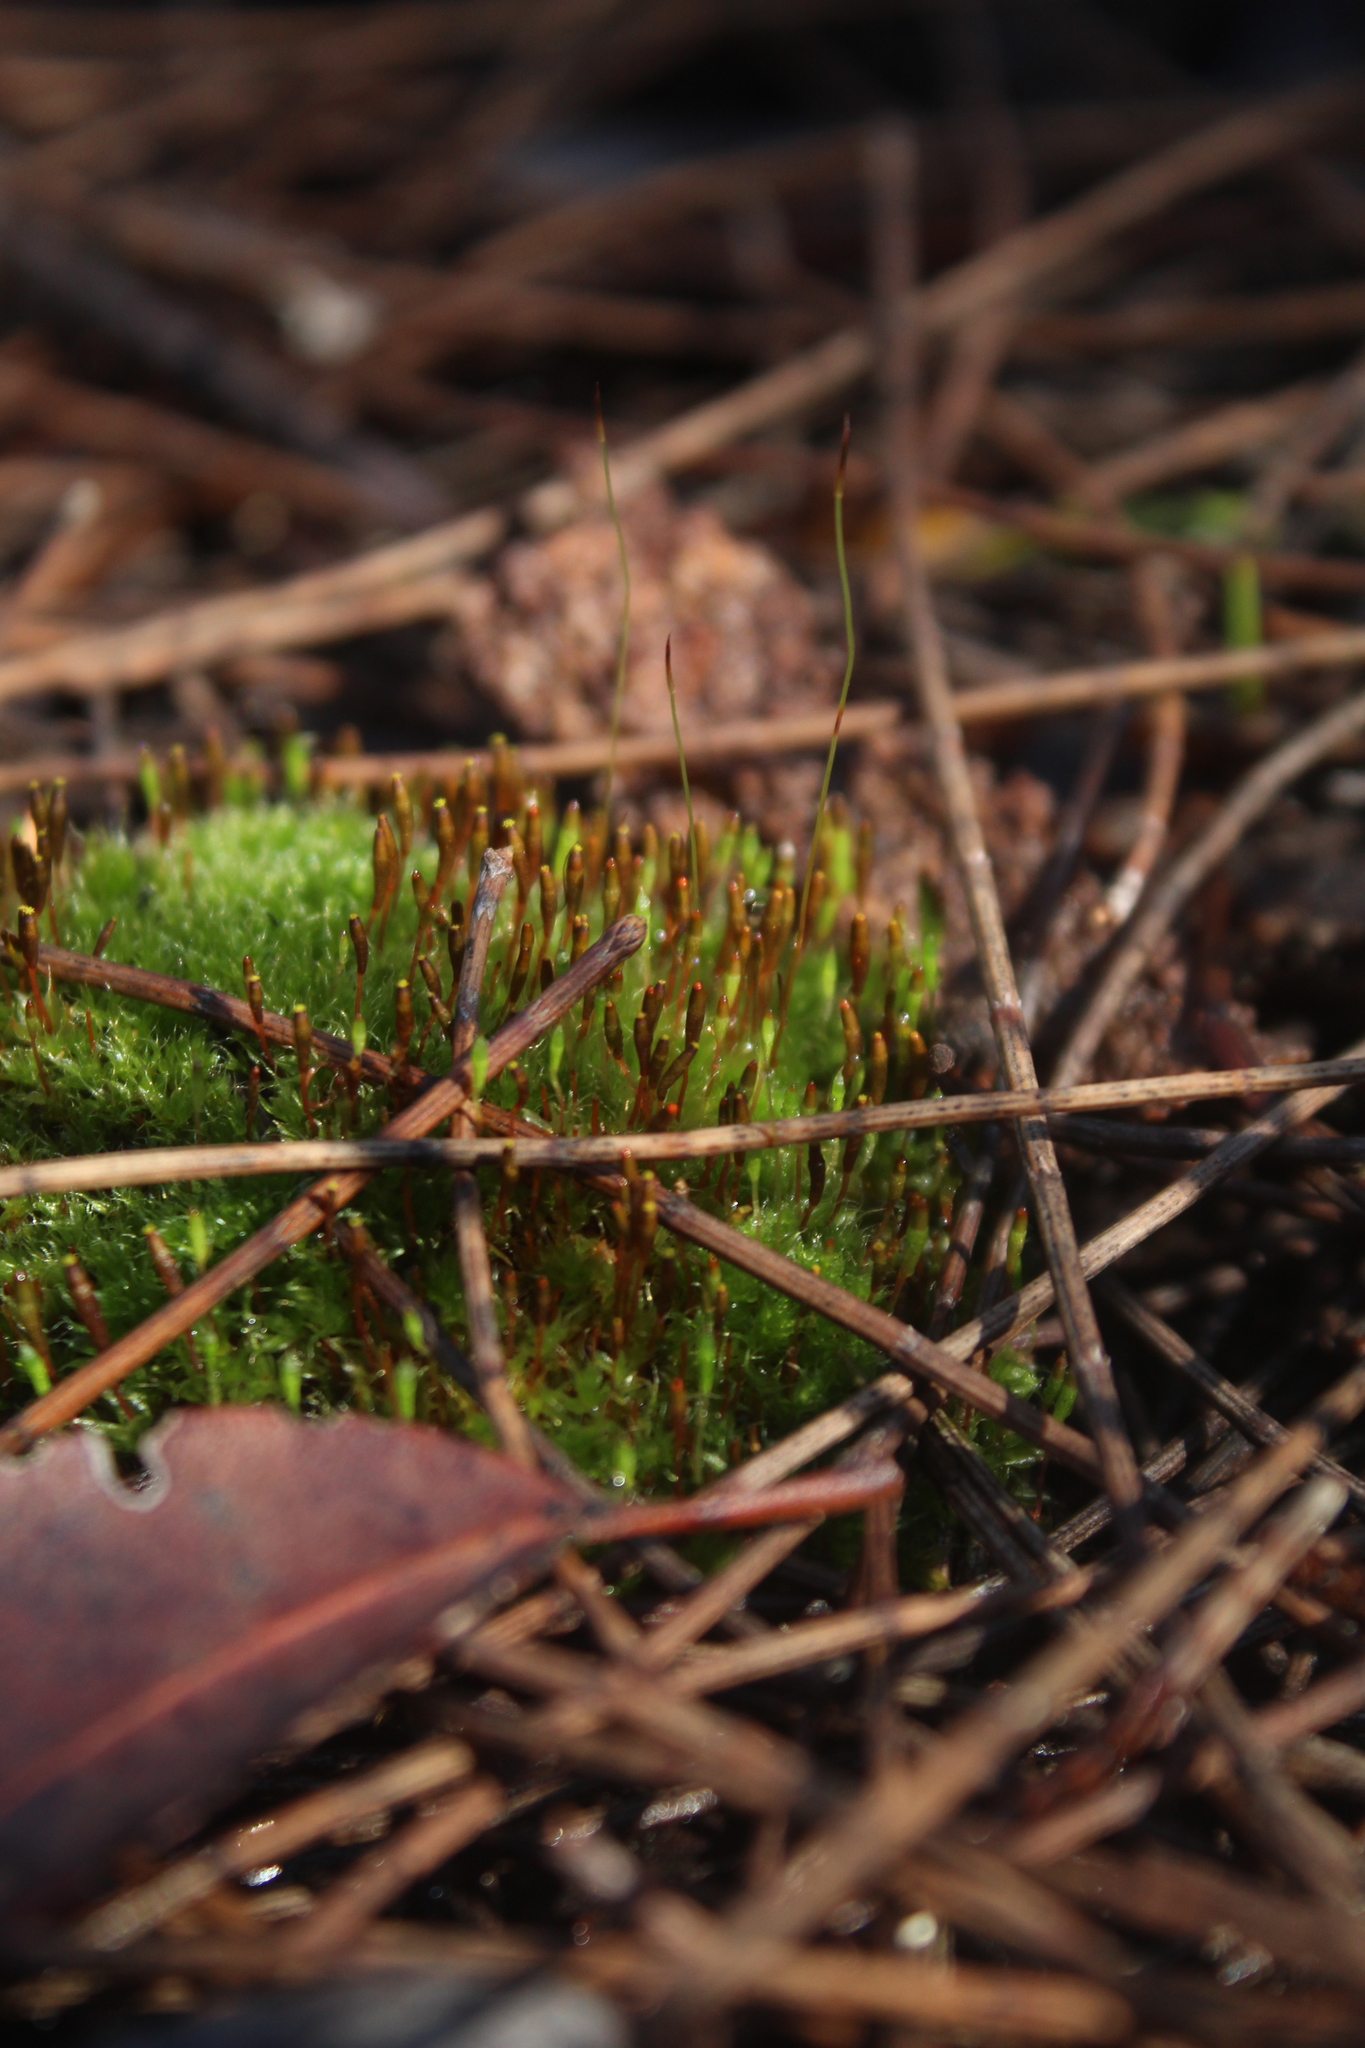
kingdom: Plantae
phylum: Bryophyta
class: Bryopsida
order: Splachnales
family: Splachnaceae
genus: Tayloria
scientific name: Tayloria octoblephara
